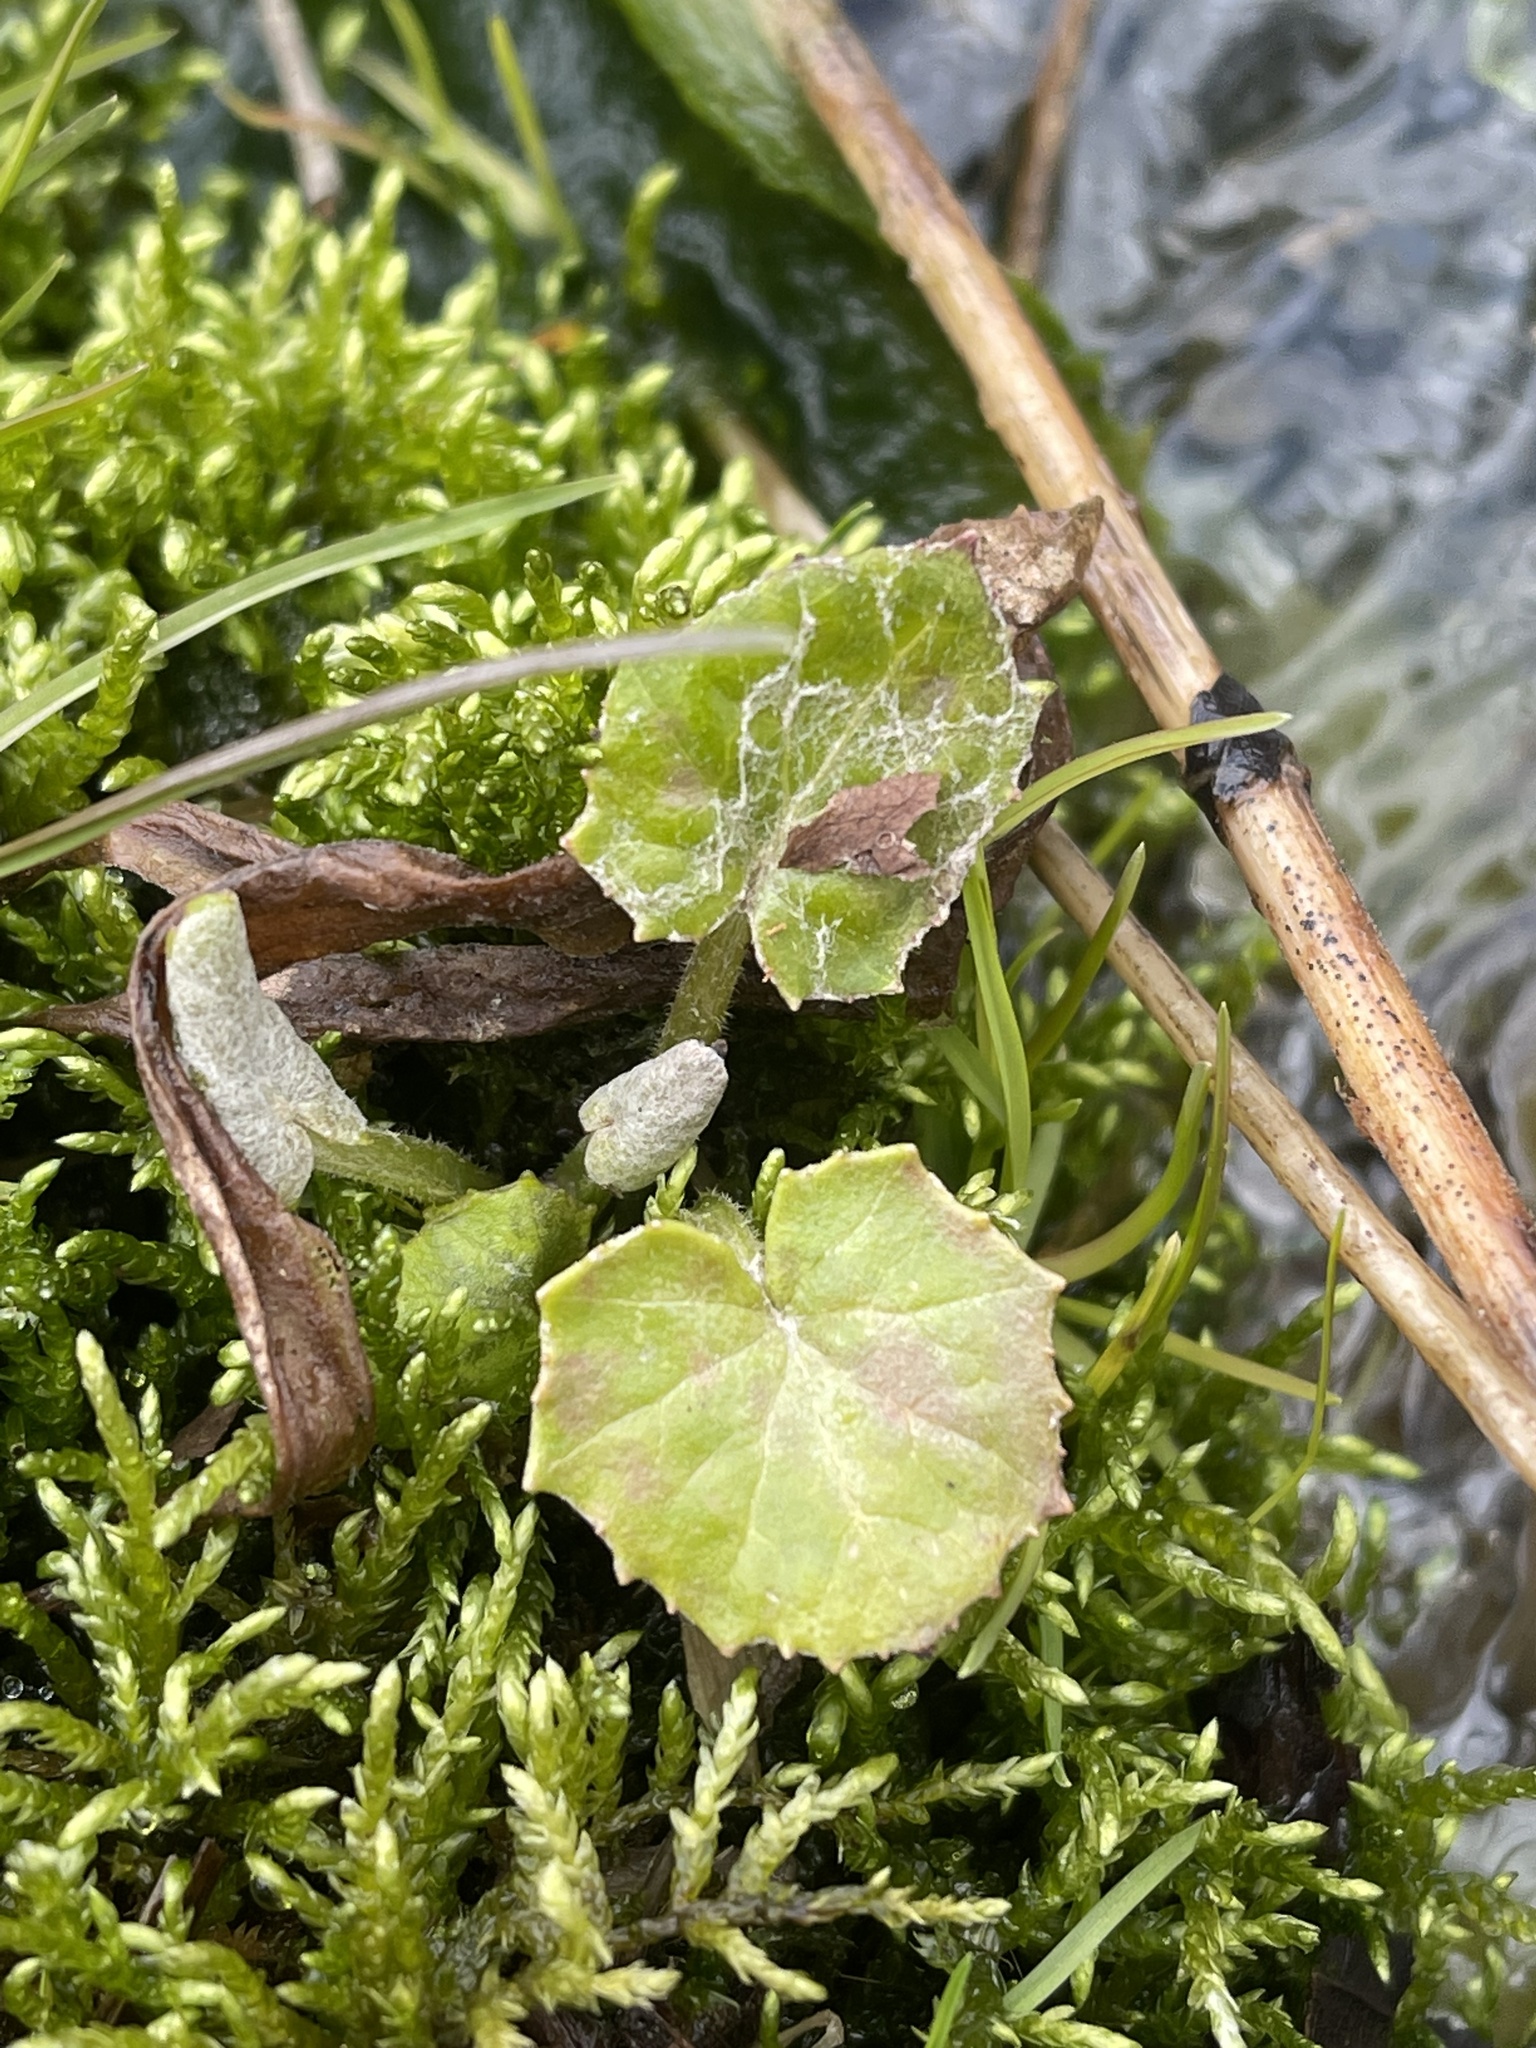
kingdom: Plantae
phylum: Tracheophyta
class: Magnoliopsida
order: Asterales
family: Asteraceae
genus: Tussilago
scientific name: Tussilago farfara
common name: Coltsfoot
